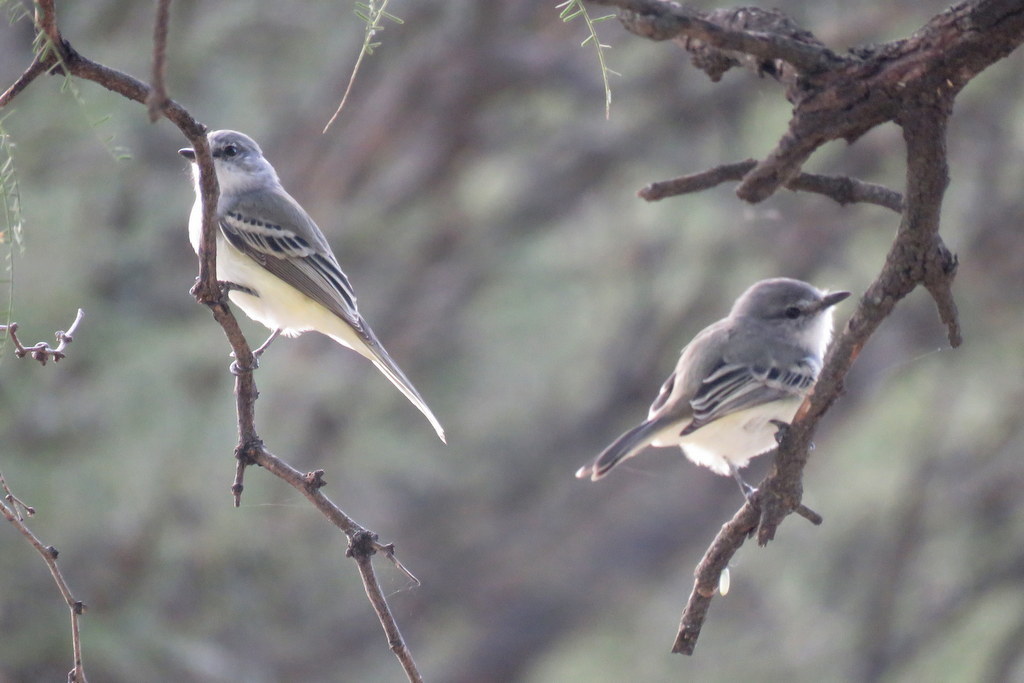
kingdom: Animalia
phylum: Chordata
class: Aves
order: Passeriformes
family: Tyrannidae
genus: Suiriri
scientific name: Suiriri suiriri
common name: Suiriri flycatcher
